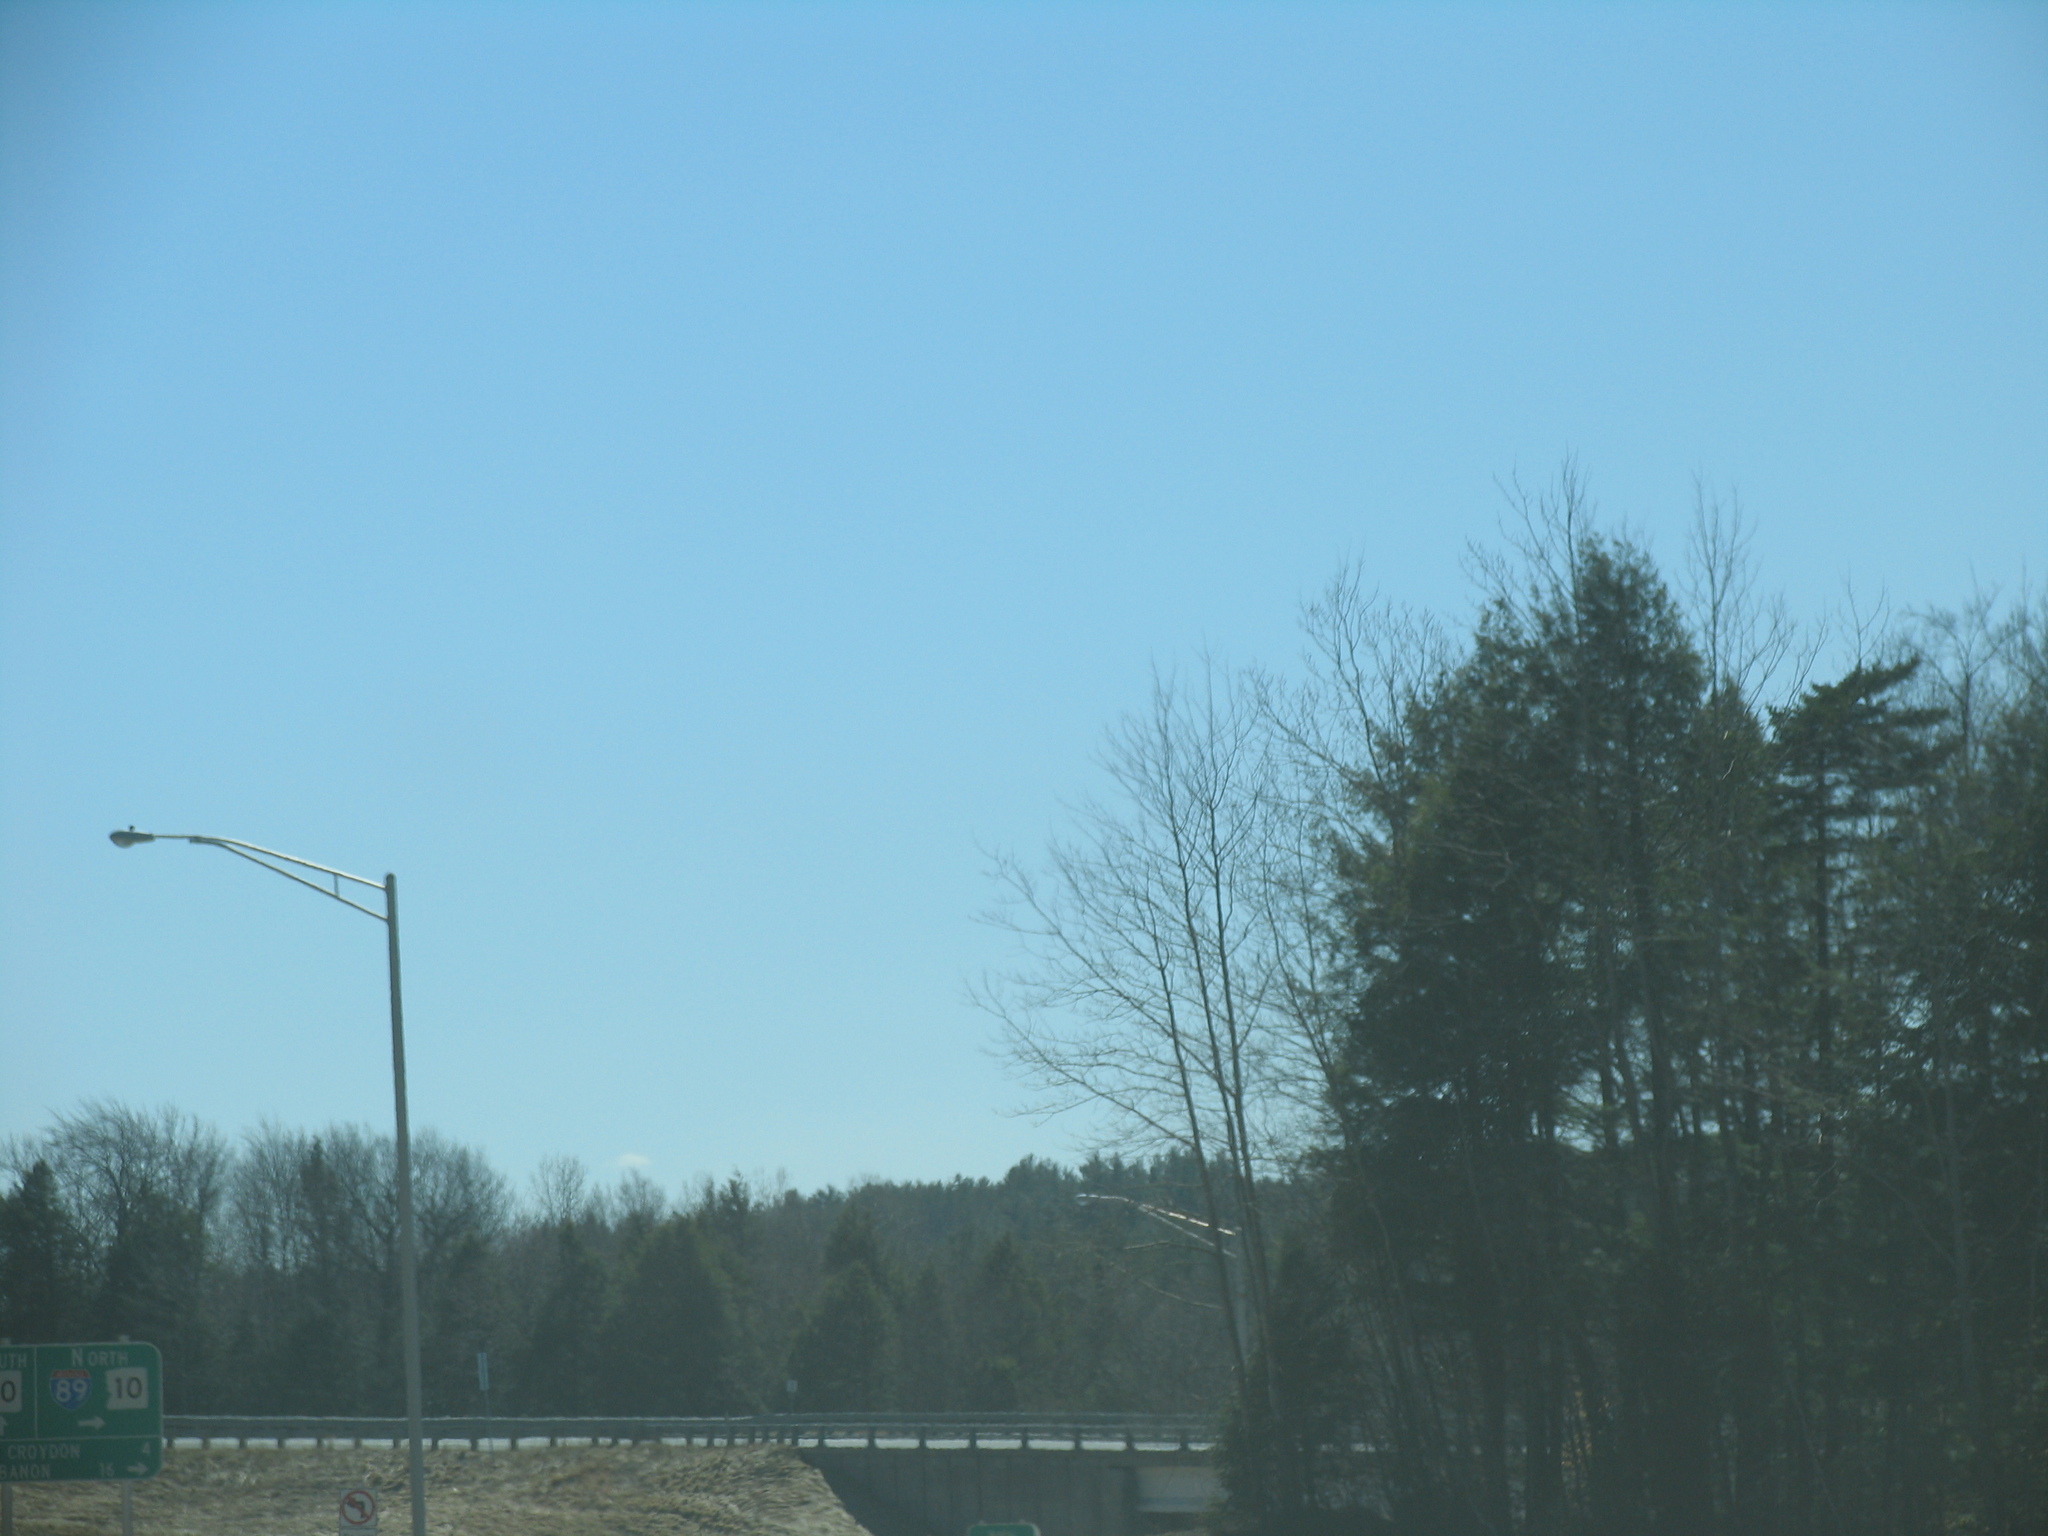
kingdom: Plantae
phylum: Tracheophyta
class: Pinopsida
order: Pinales
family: Pinaceae
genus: Pinus
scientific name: Pinus strobus
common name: Weymouth pine
